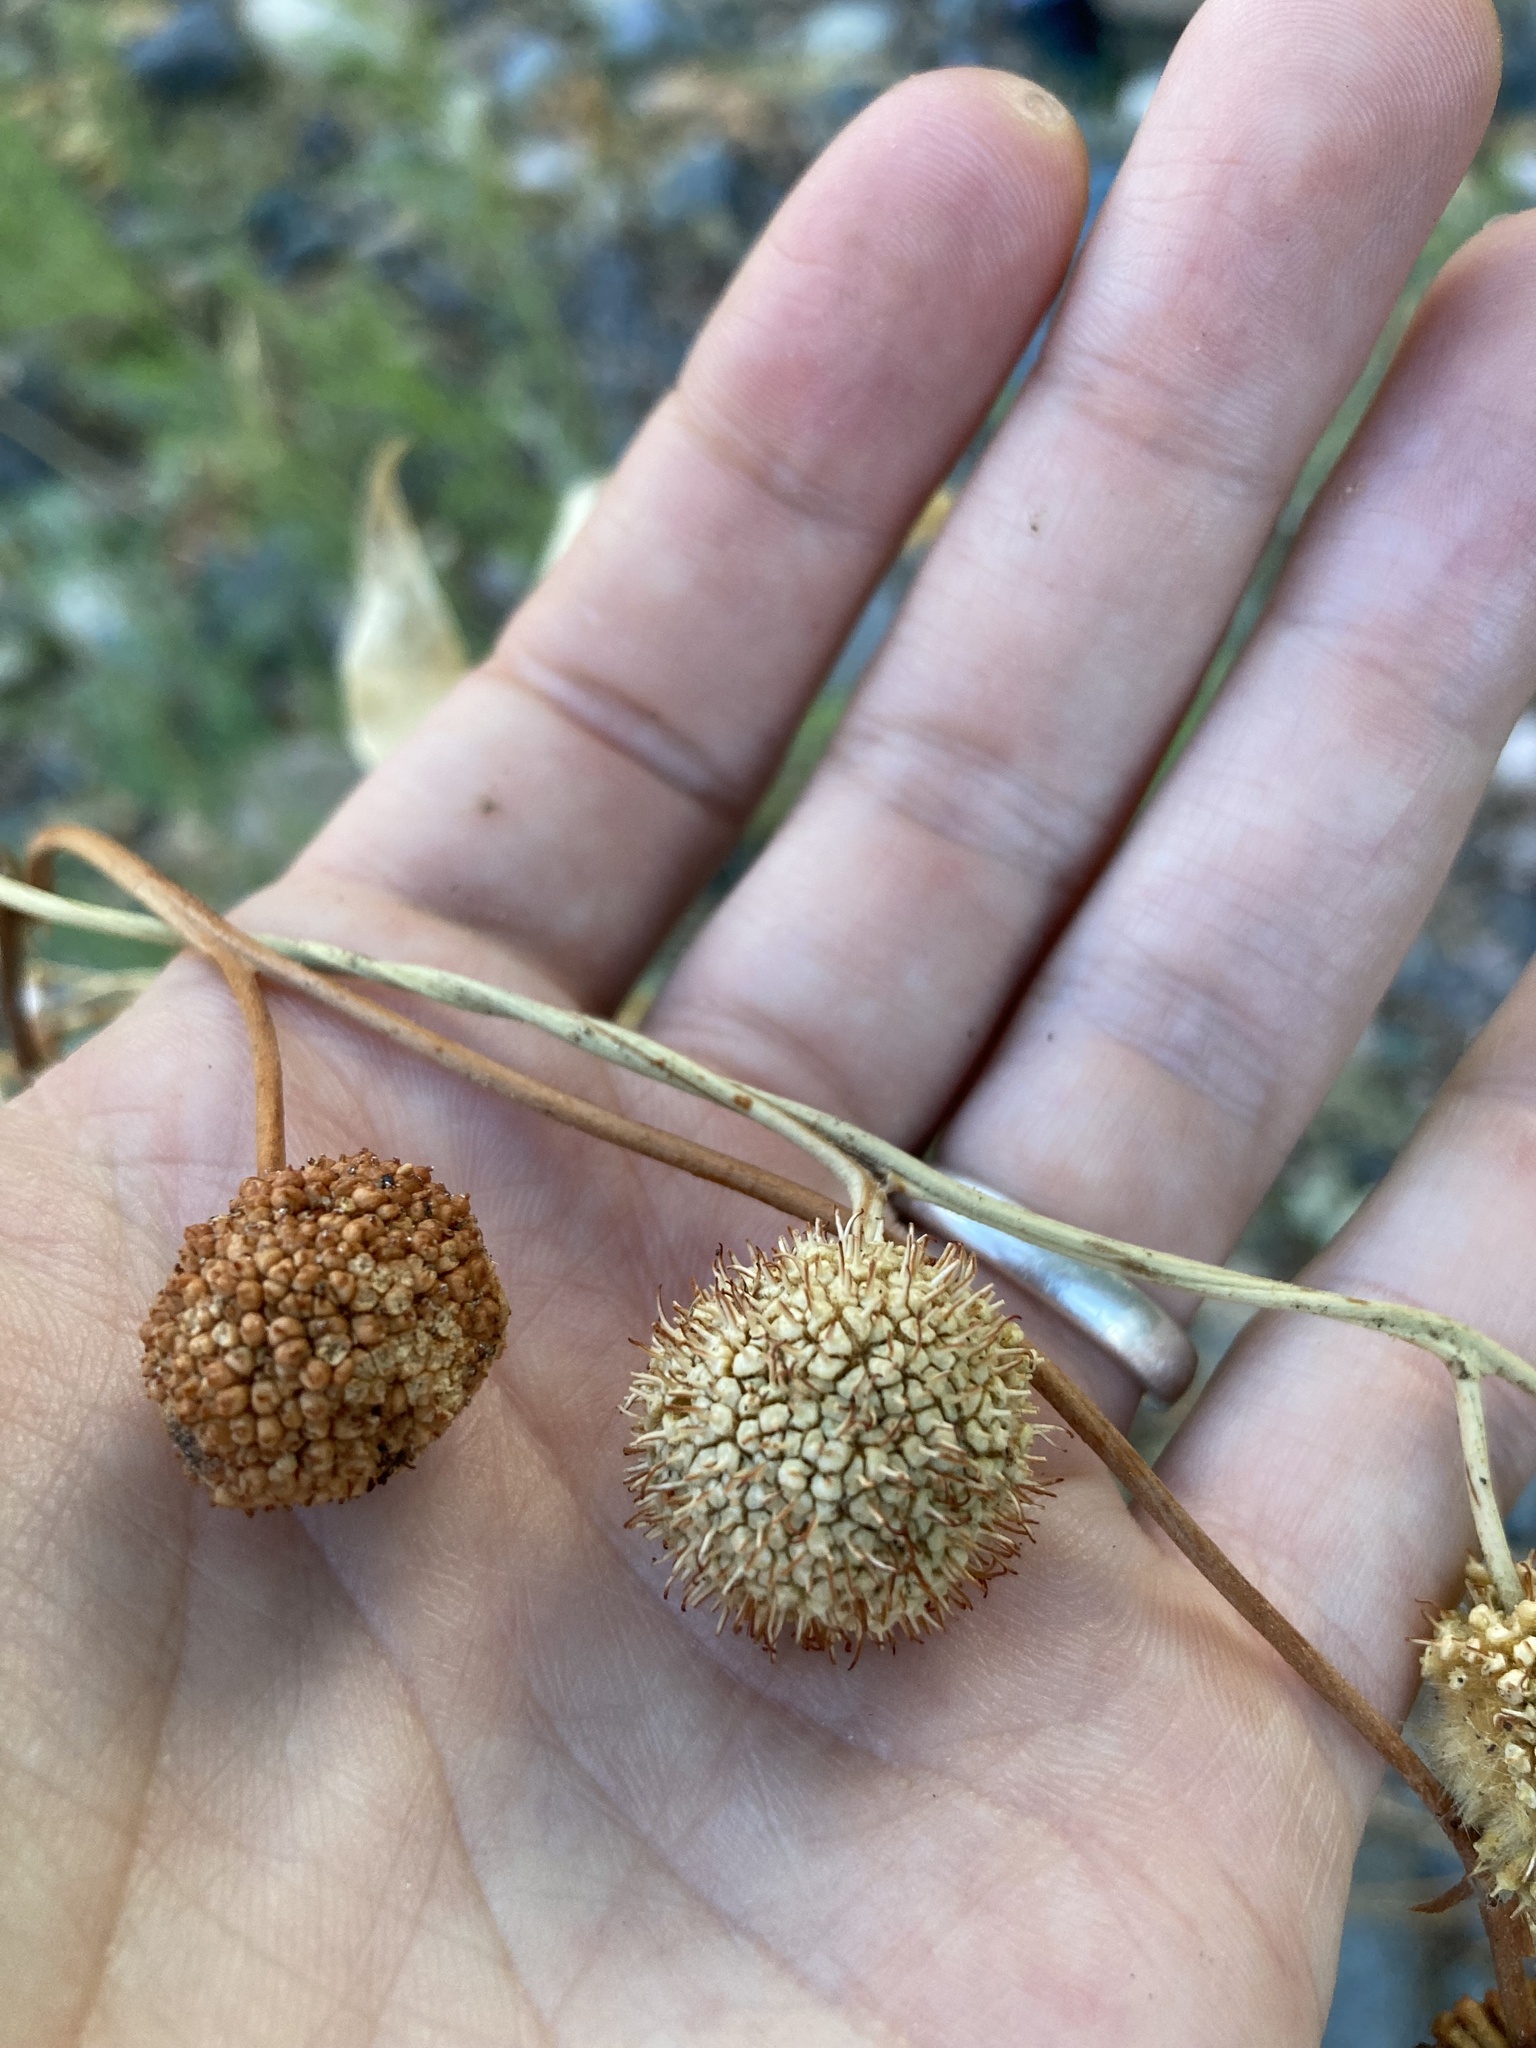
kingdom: Plantae
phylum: Tracheophyta
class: Magnoliopsida
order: Proteales
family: Platanaceae
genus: Platanus
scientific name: Platanus wrightii
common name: Arizona sycamore
